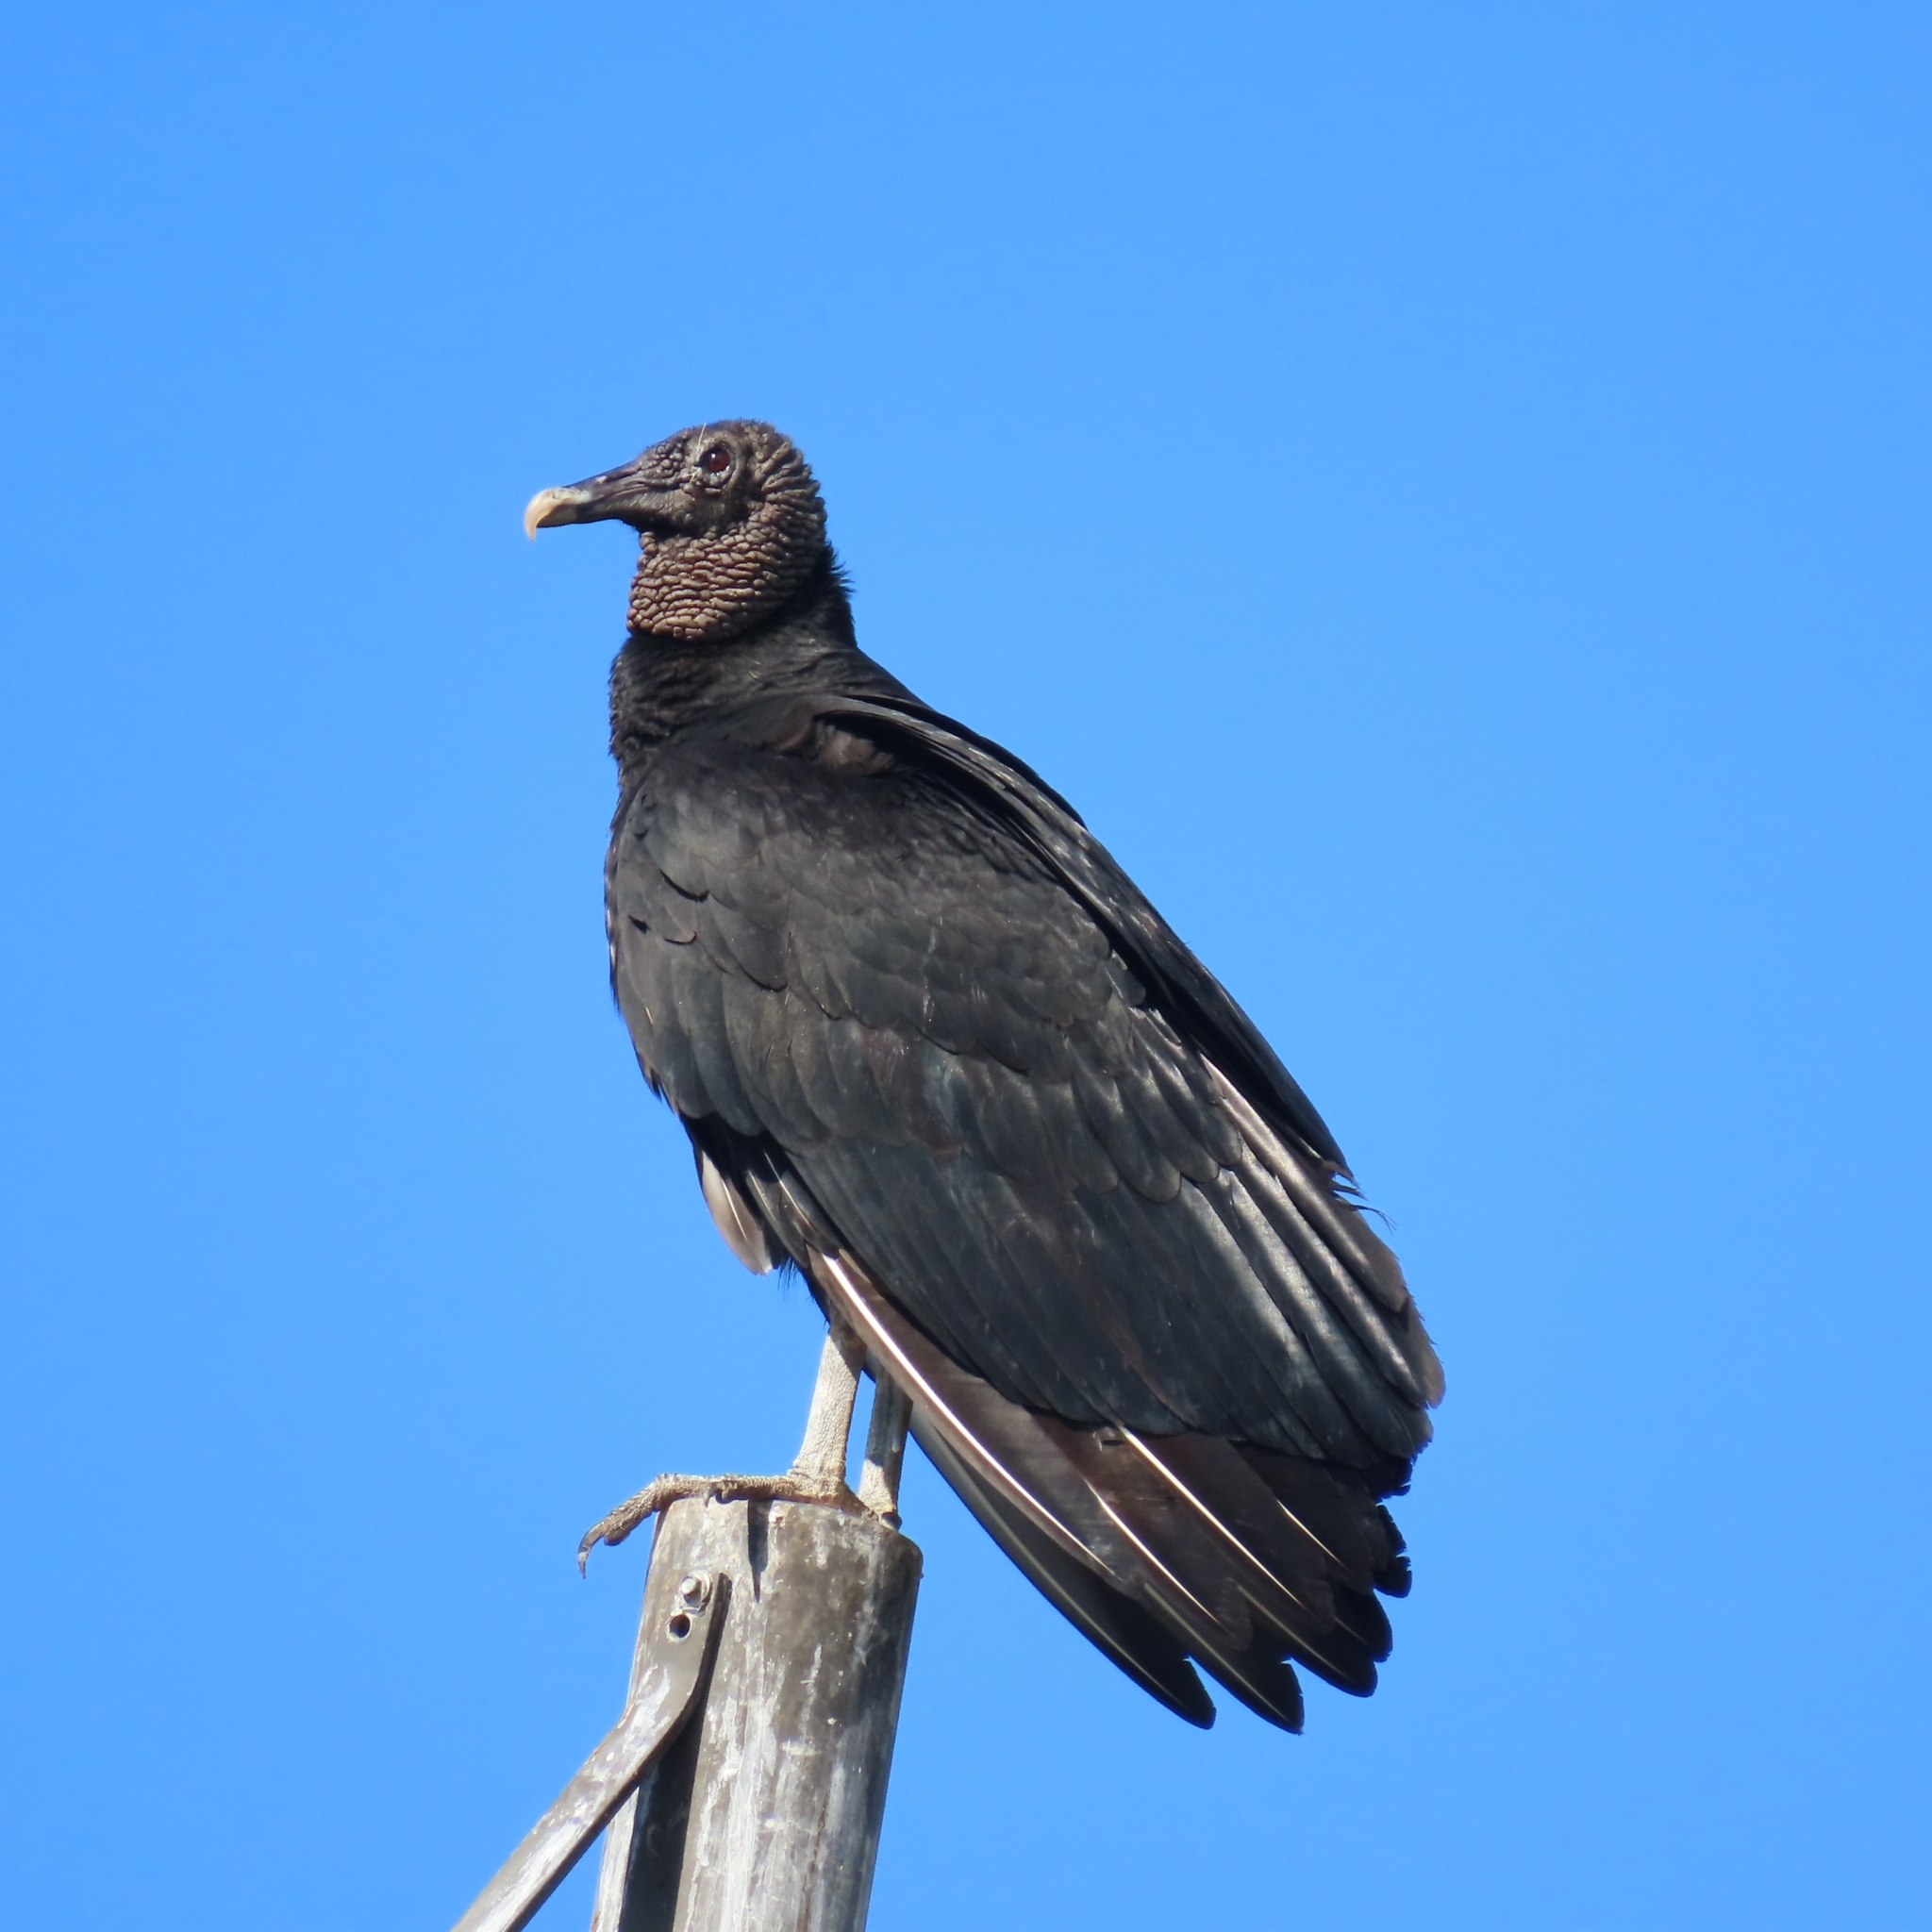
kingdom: Animalia
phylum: Chordata
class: Aves
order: Accipitriformes
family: Cathartidae
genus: Coragyps
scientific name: Coragyps atratus
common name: Black vulture
